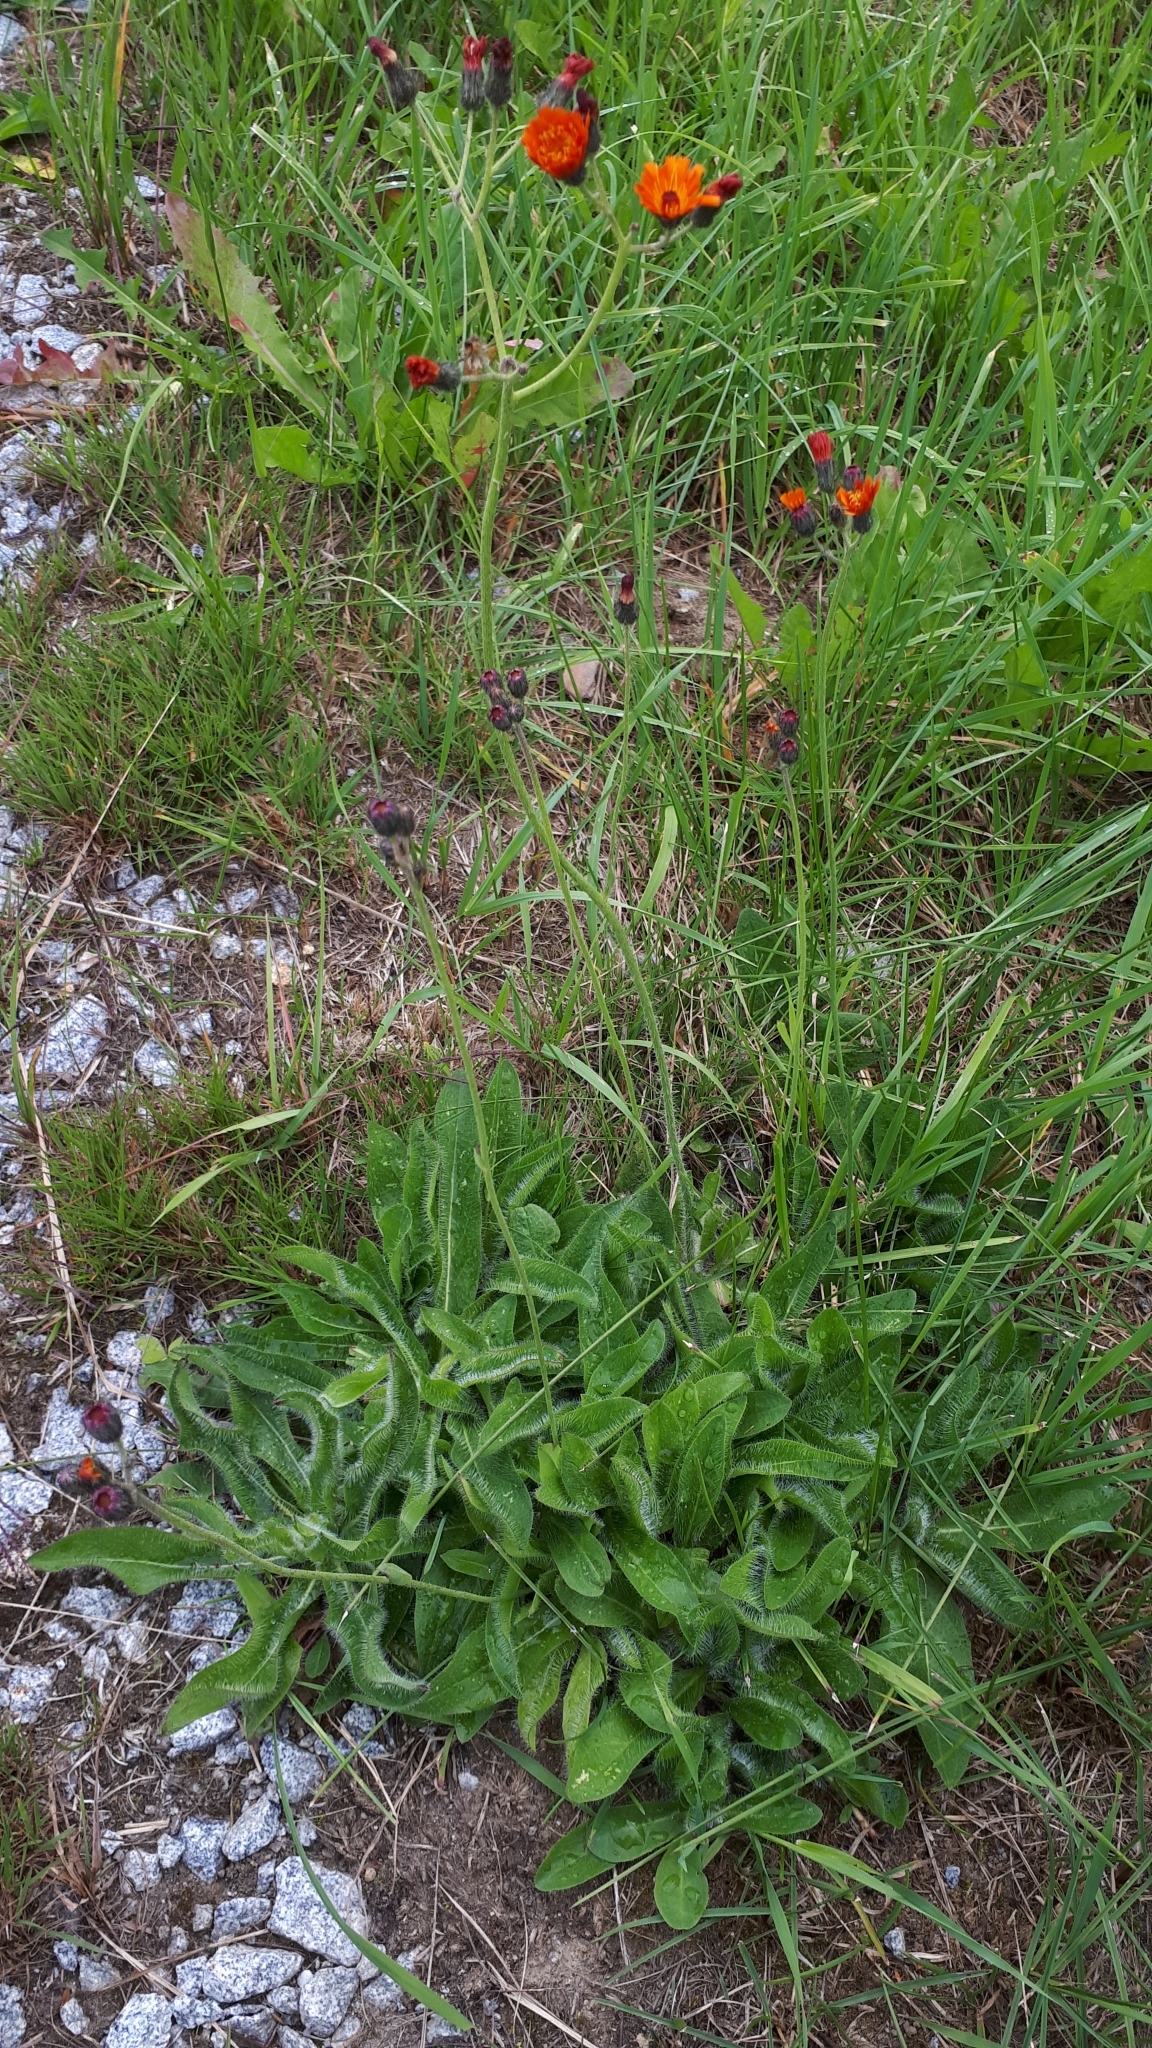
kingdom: Plantae
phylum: Tracheophyta
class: Magnoliopsida
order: Asterales
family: Asteraceae
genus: Pilosella
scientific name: Pilosella aurantiaca
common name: Fox-and-cubs
